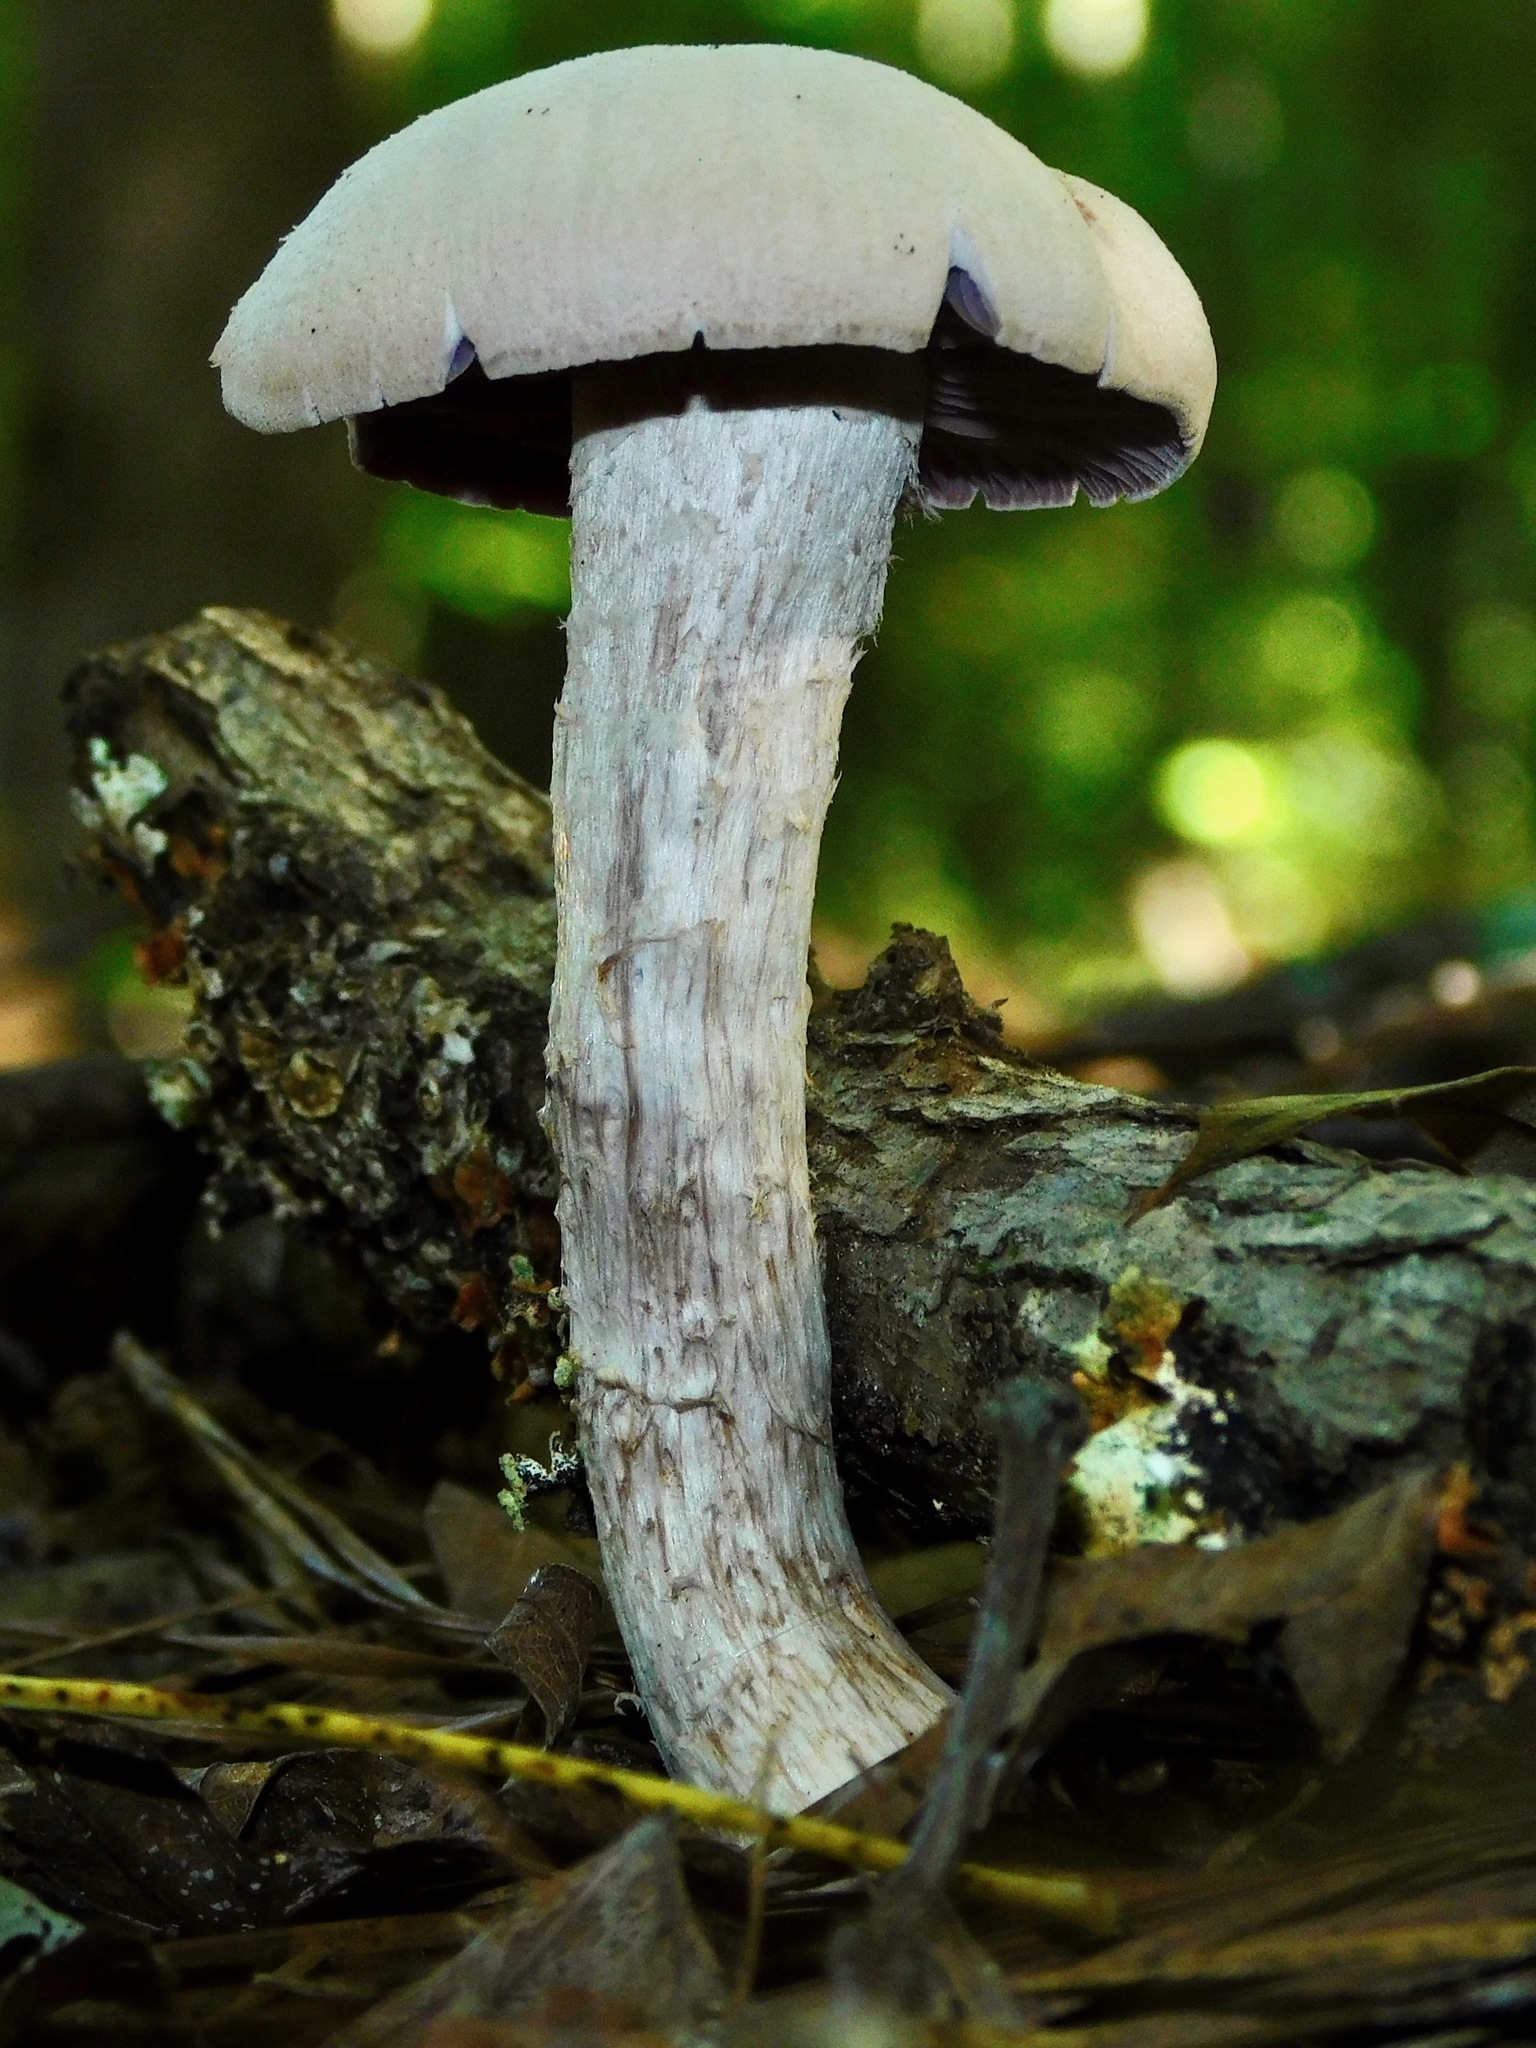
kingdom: Fungi
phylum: Basidiomycota
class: Agaricomycetes
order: Agaricales
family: Hydnangiaceae
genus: Laccaria
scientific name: Laccaria ochropurpurea
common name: Purple laccaria
